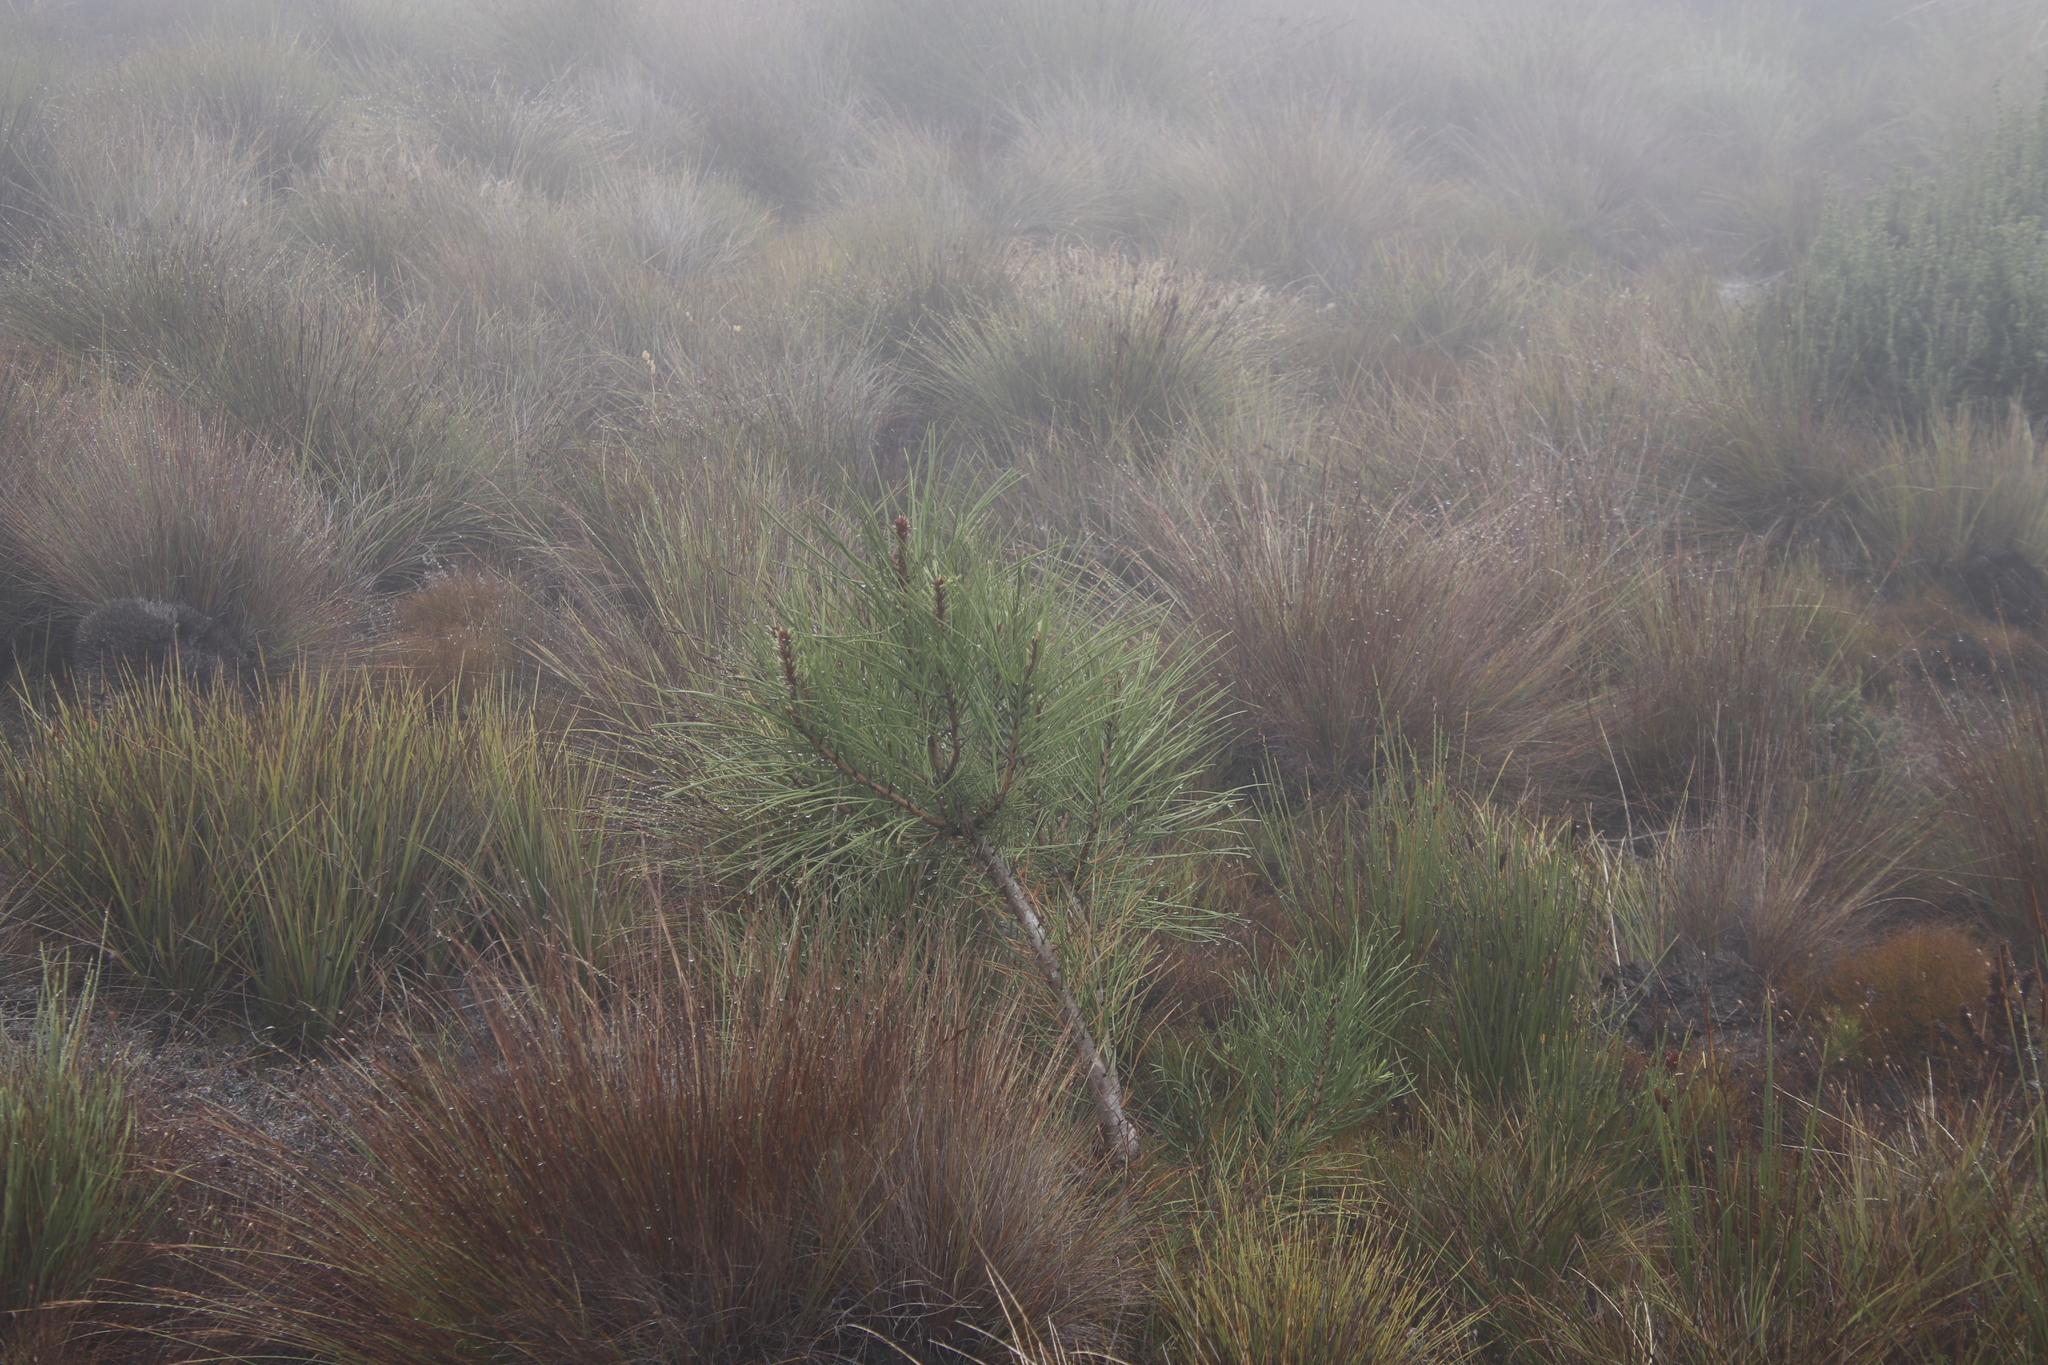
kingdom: Plantae
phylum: Tracheophyta
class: Pinopsida
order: Pinales
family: Pinaceae
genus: Pinus
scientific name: Pinus pinaster
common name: Maritime pine
